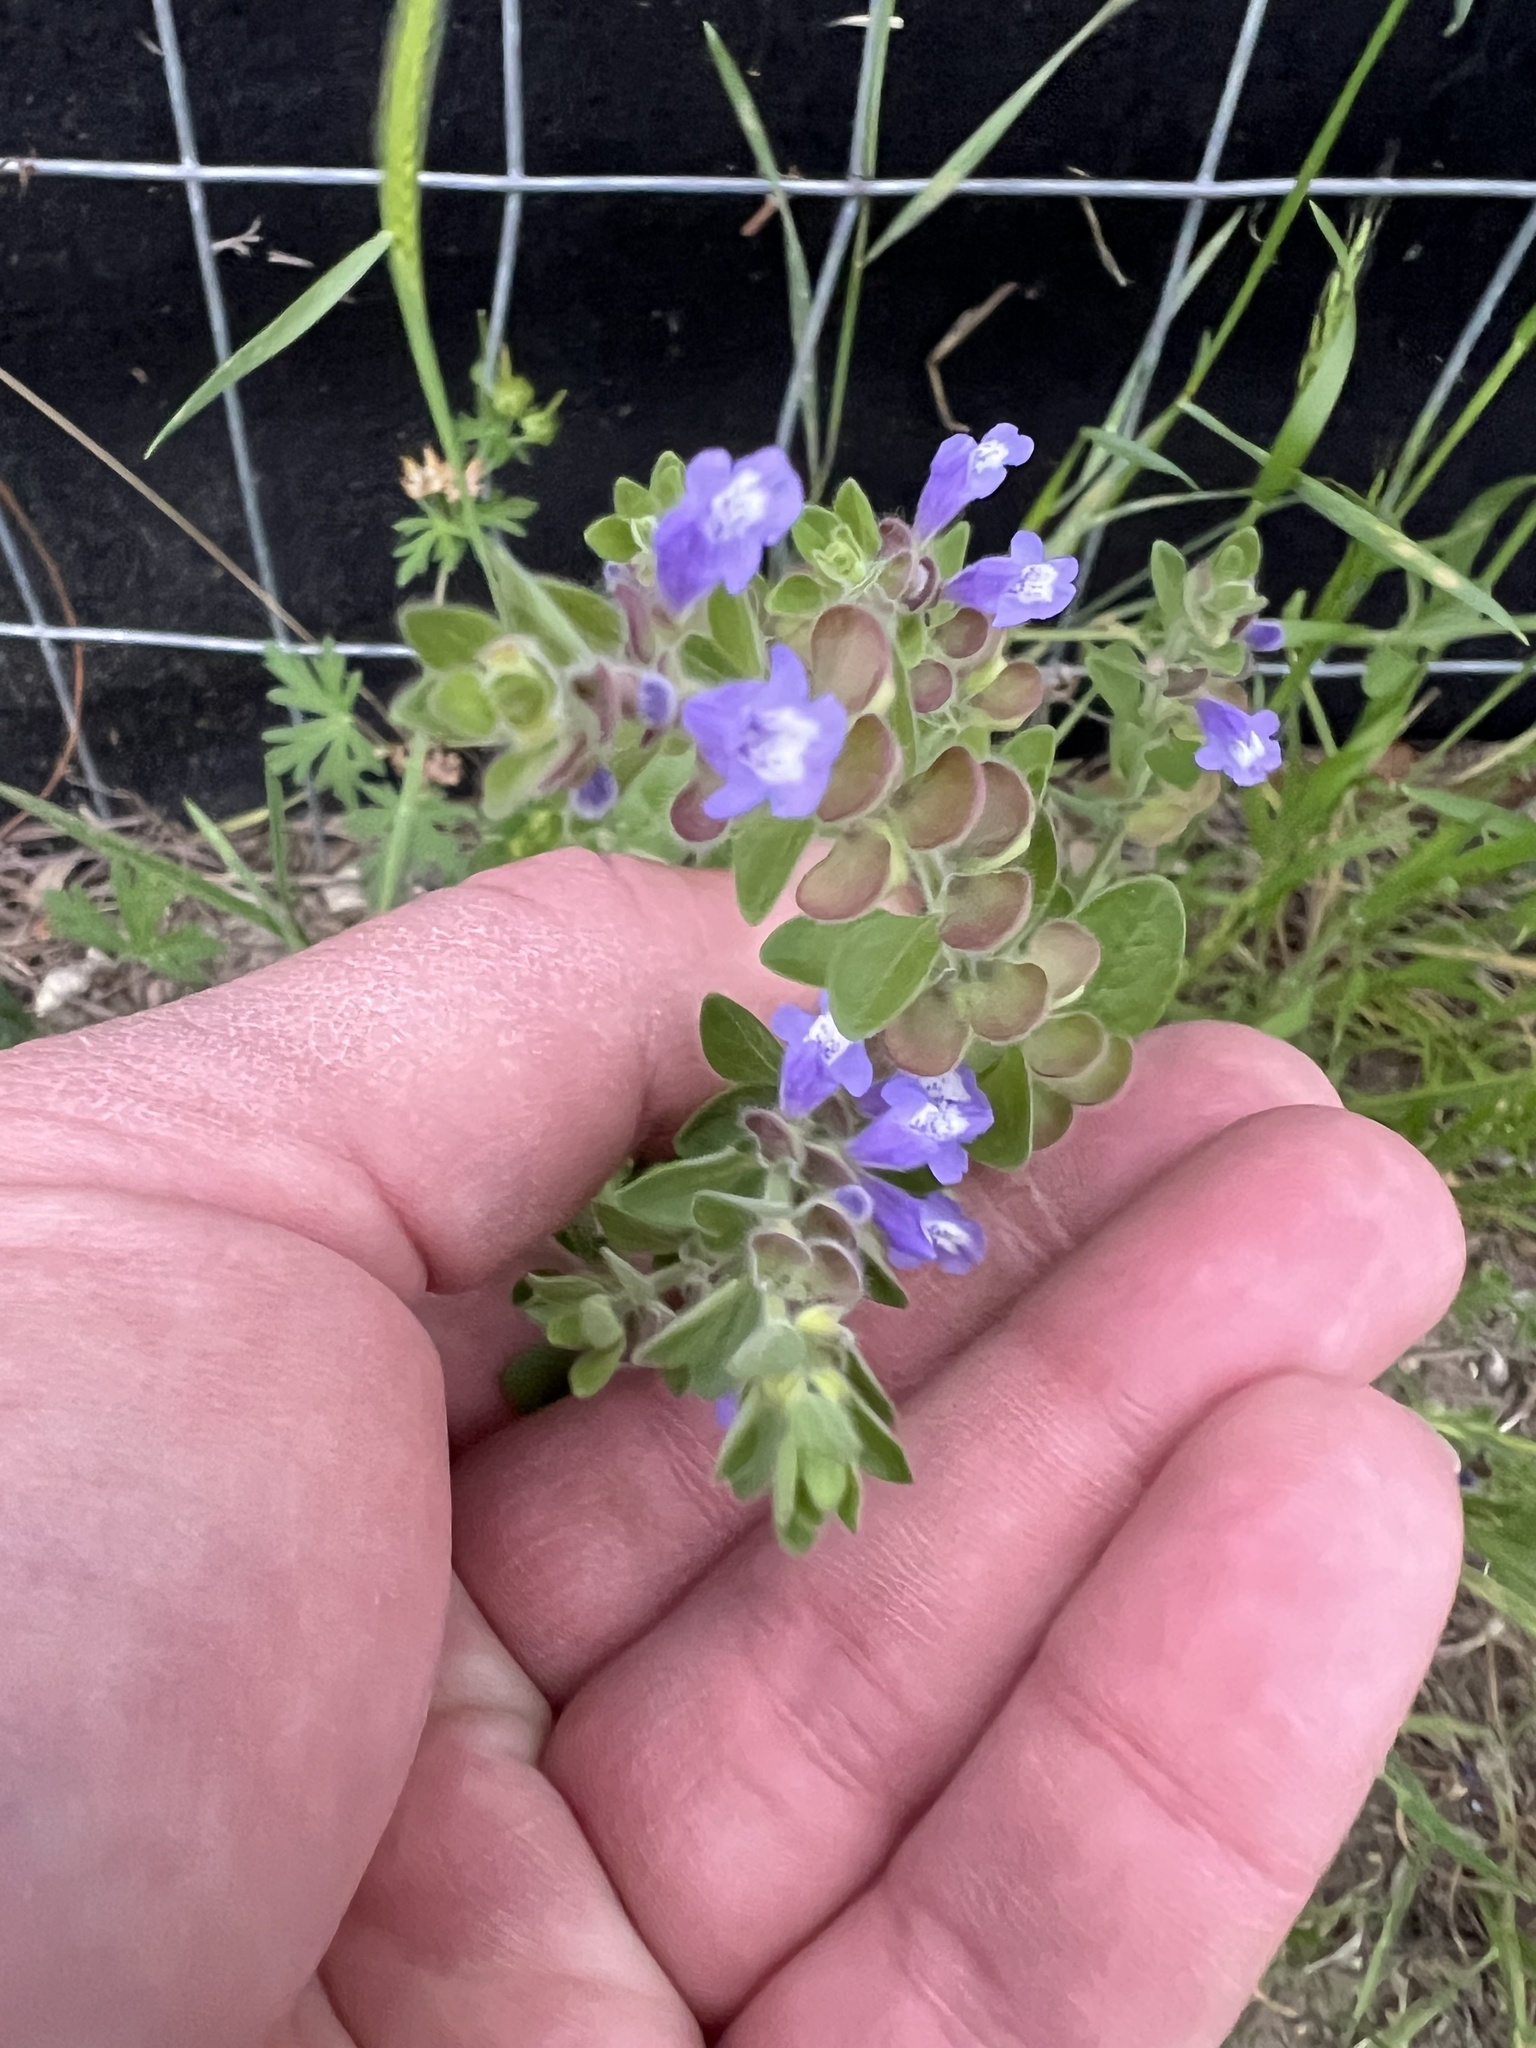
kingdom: Plantae
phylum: Tracheophyta
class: Magnoliopsida
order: Lamiales
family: Lamiaceae
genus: Scutellaria
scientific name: Scutellaria drummondii
